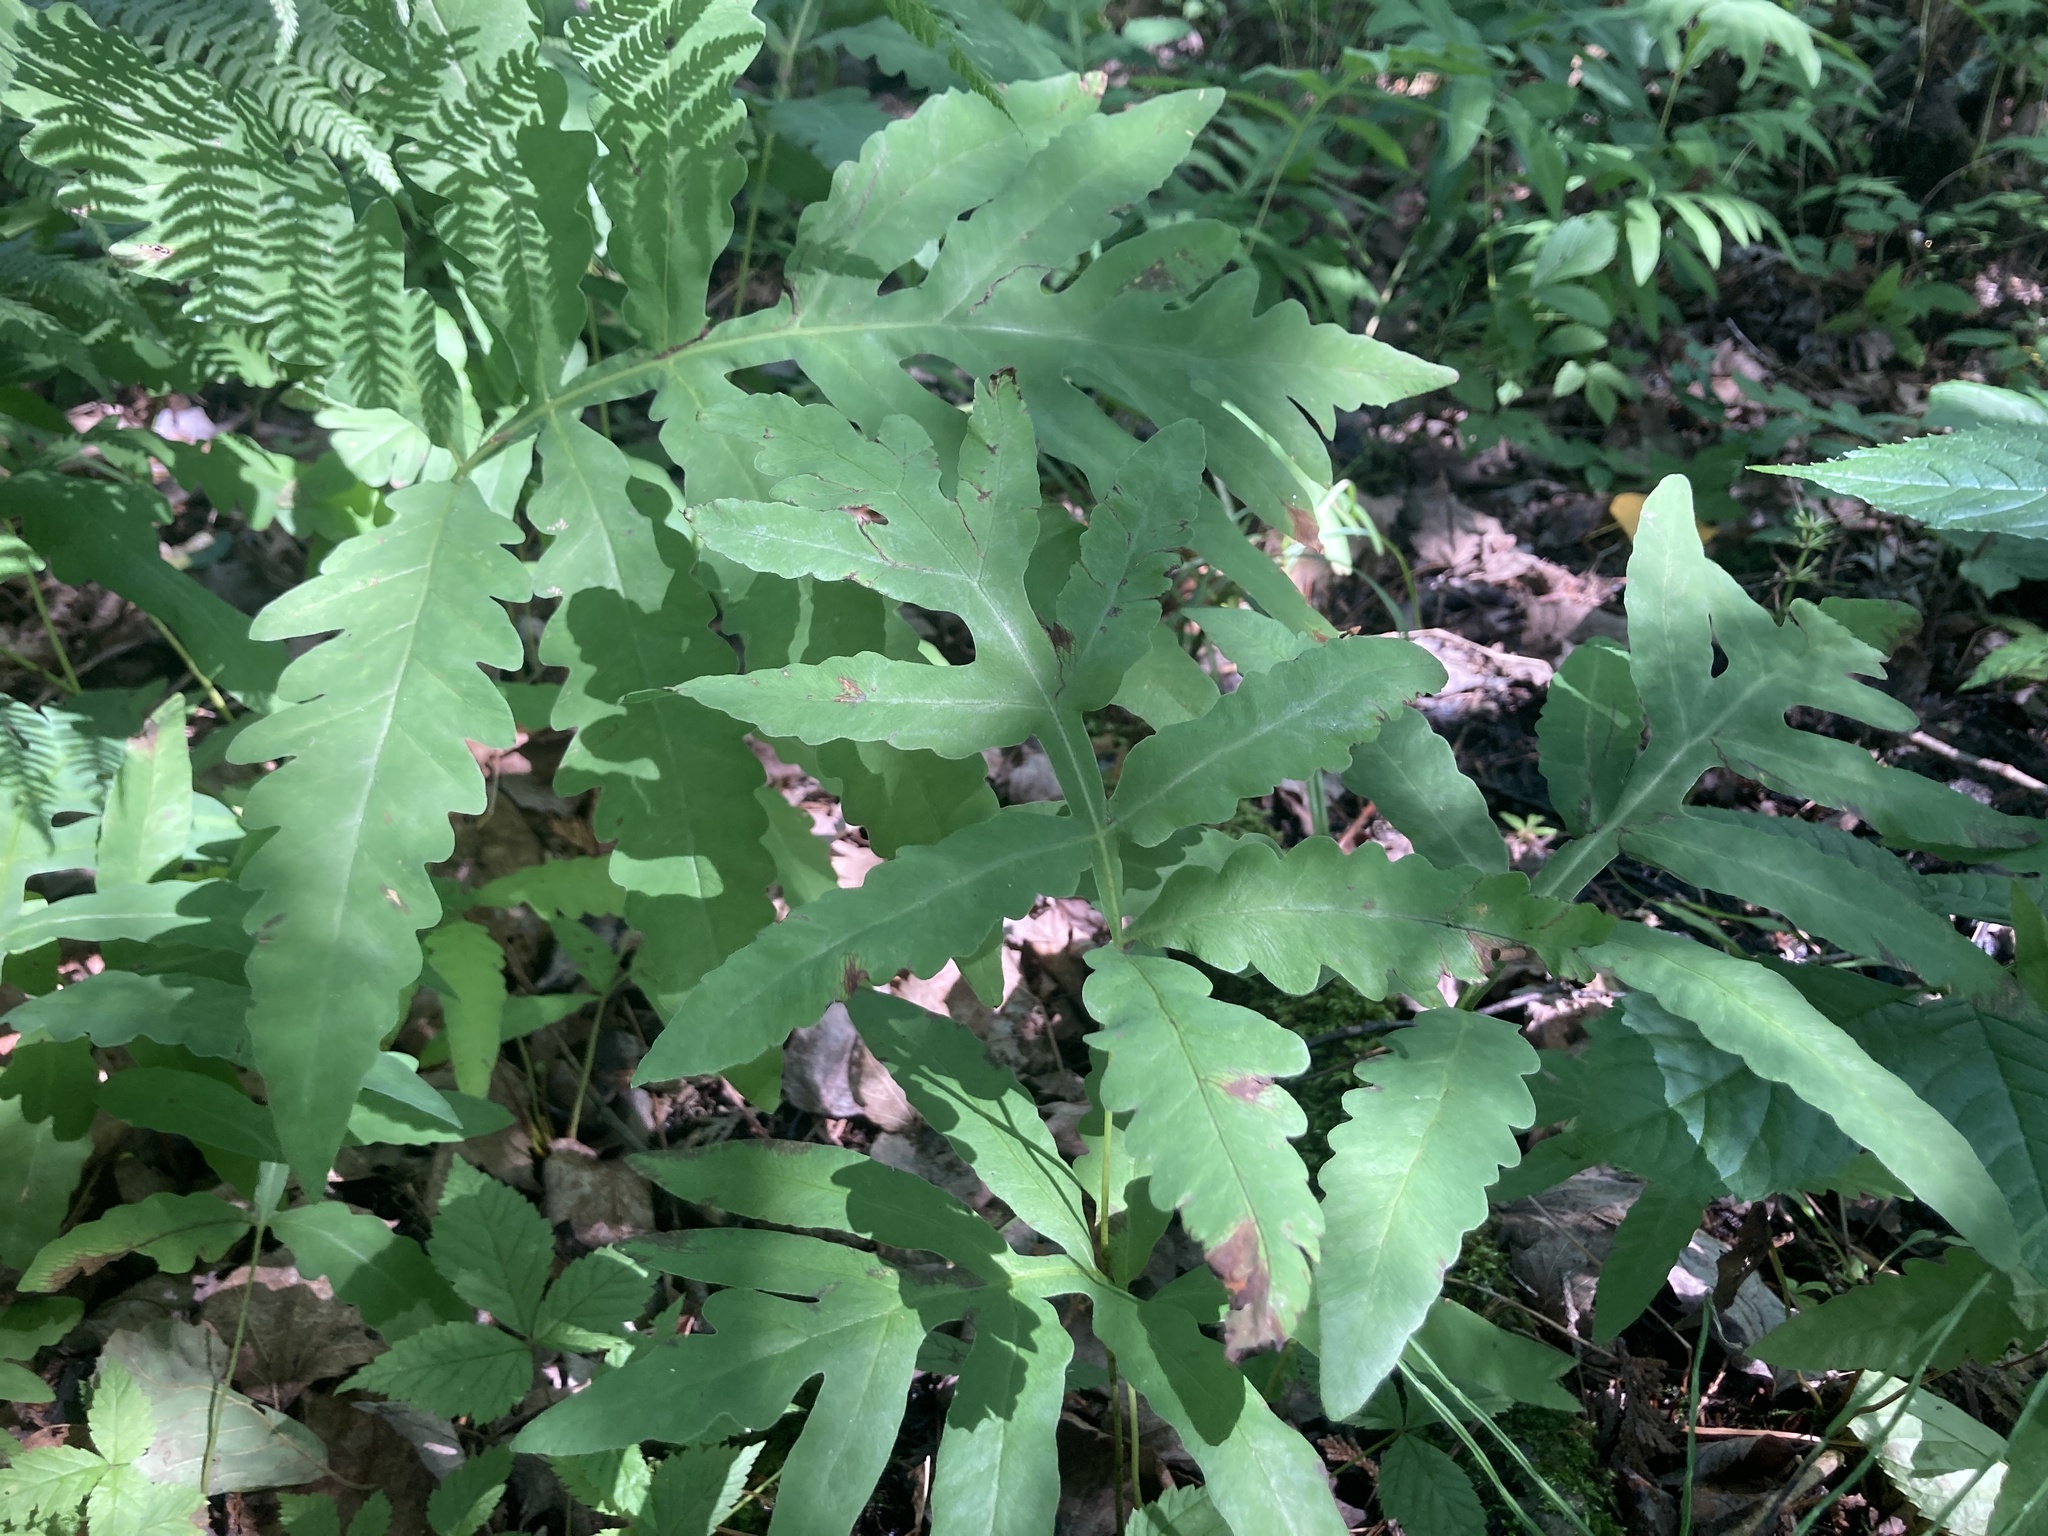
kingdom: Plantae
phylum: Tracheophyta
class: Polypodiopsida
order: Polypodiales
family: Onocleaceae
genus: Onoclea
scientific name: Onoclea sensibilis
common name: Sensitive fern
